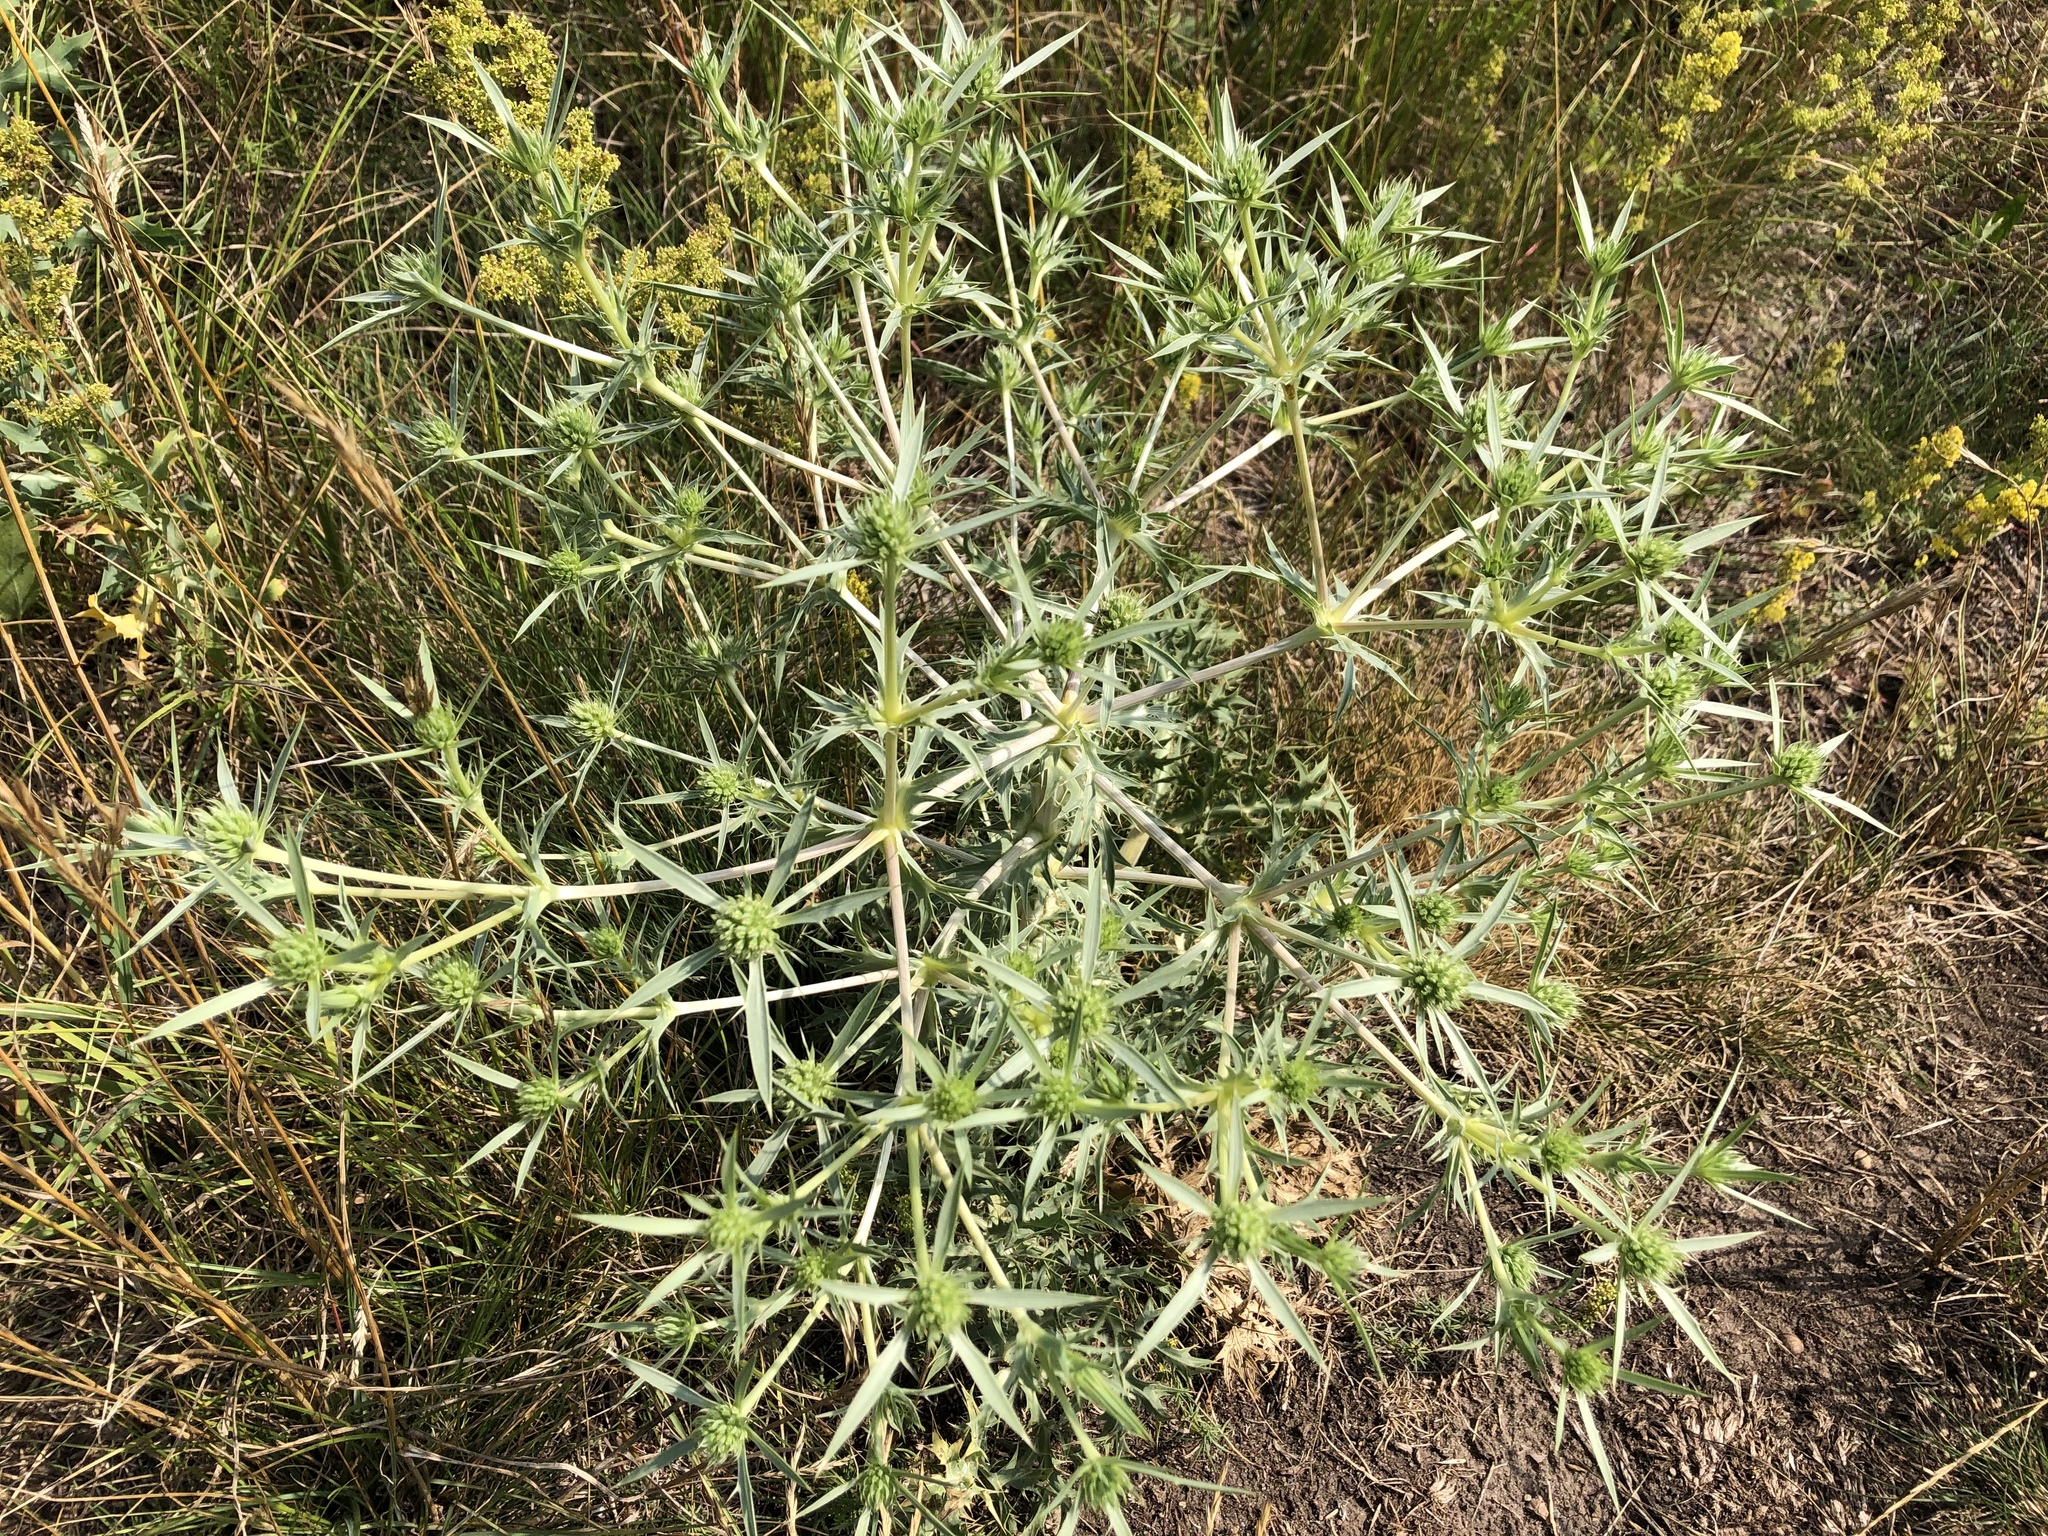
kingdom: Plantae
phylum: Tracheophyta
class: Magnoliopsida
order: Apiales
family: Apiaceae
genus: Eryngium
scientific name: Eryngium campestre
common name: Field eryngo
